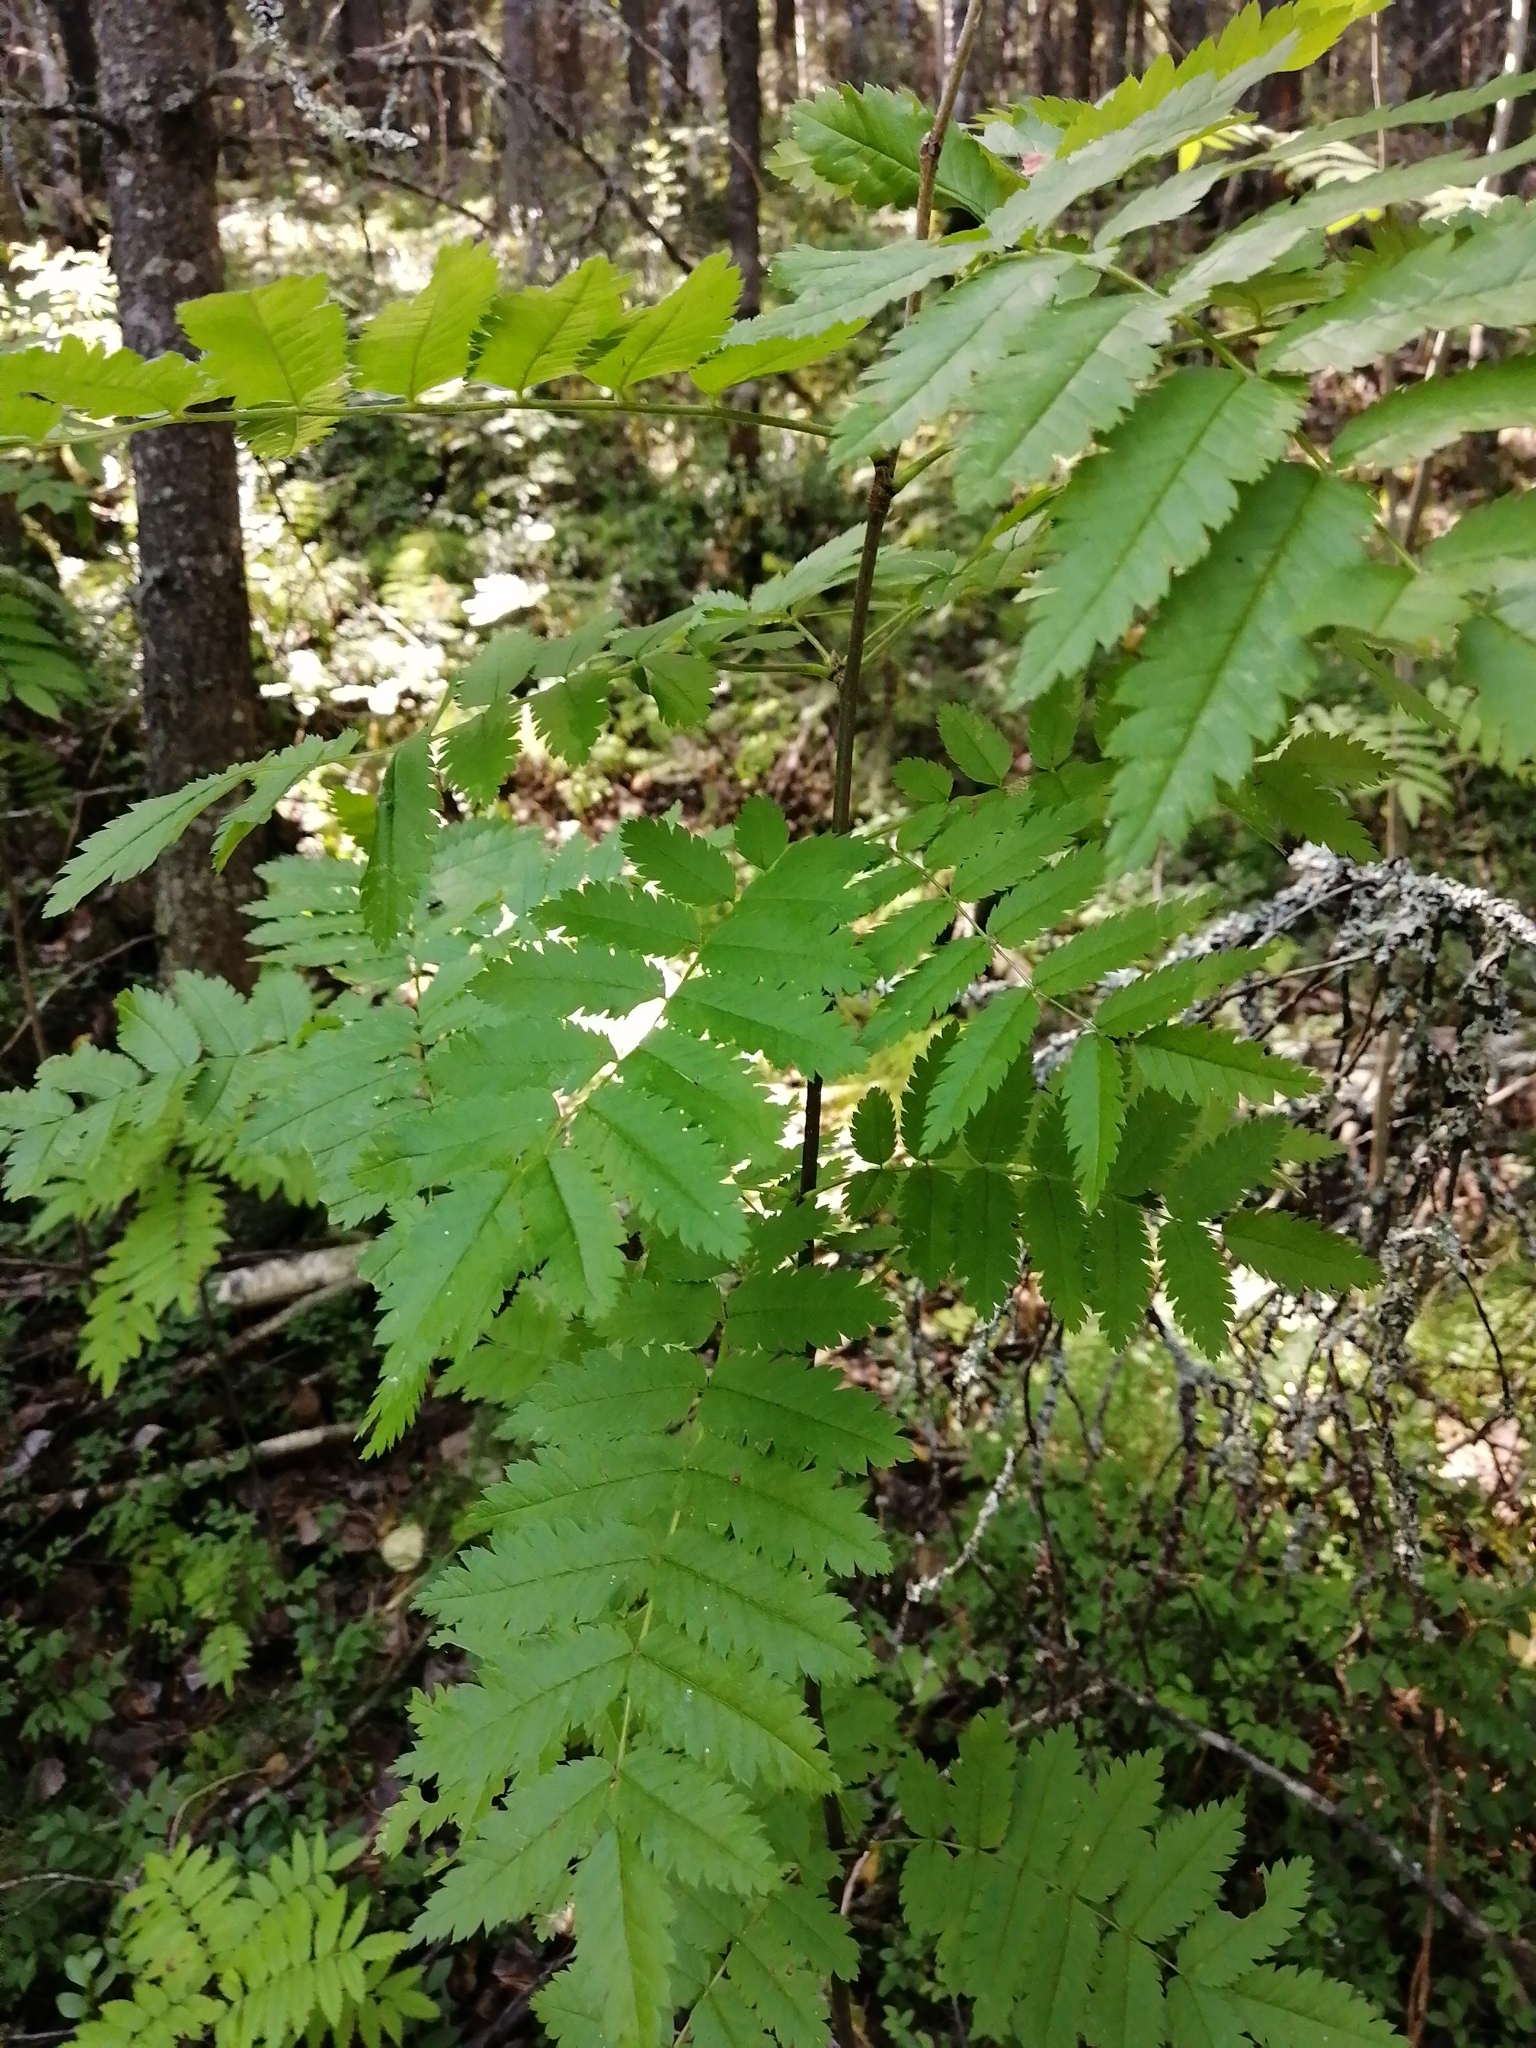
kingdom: Plantae
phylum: Tracheophyta
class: Magnoliopsida
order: Rosales
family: Rosaceae
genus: Sorbus
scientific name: Sorbus aucuparia
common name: Rowan
